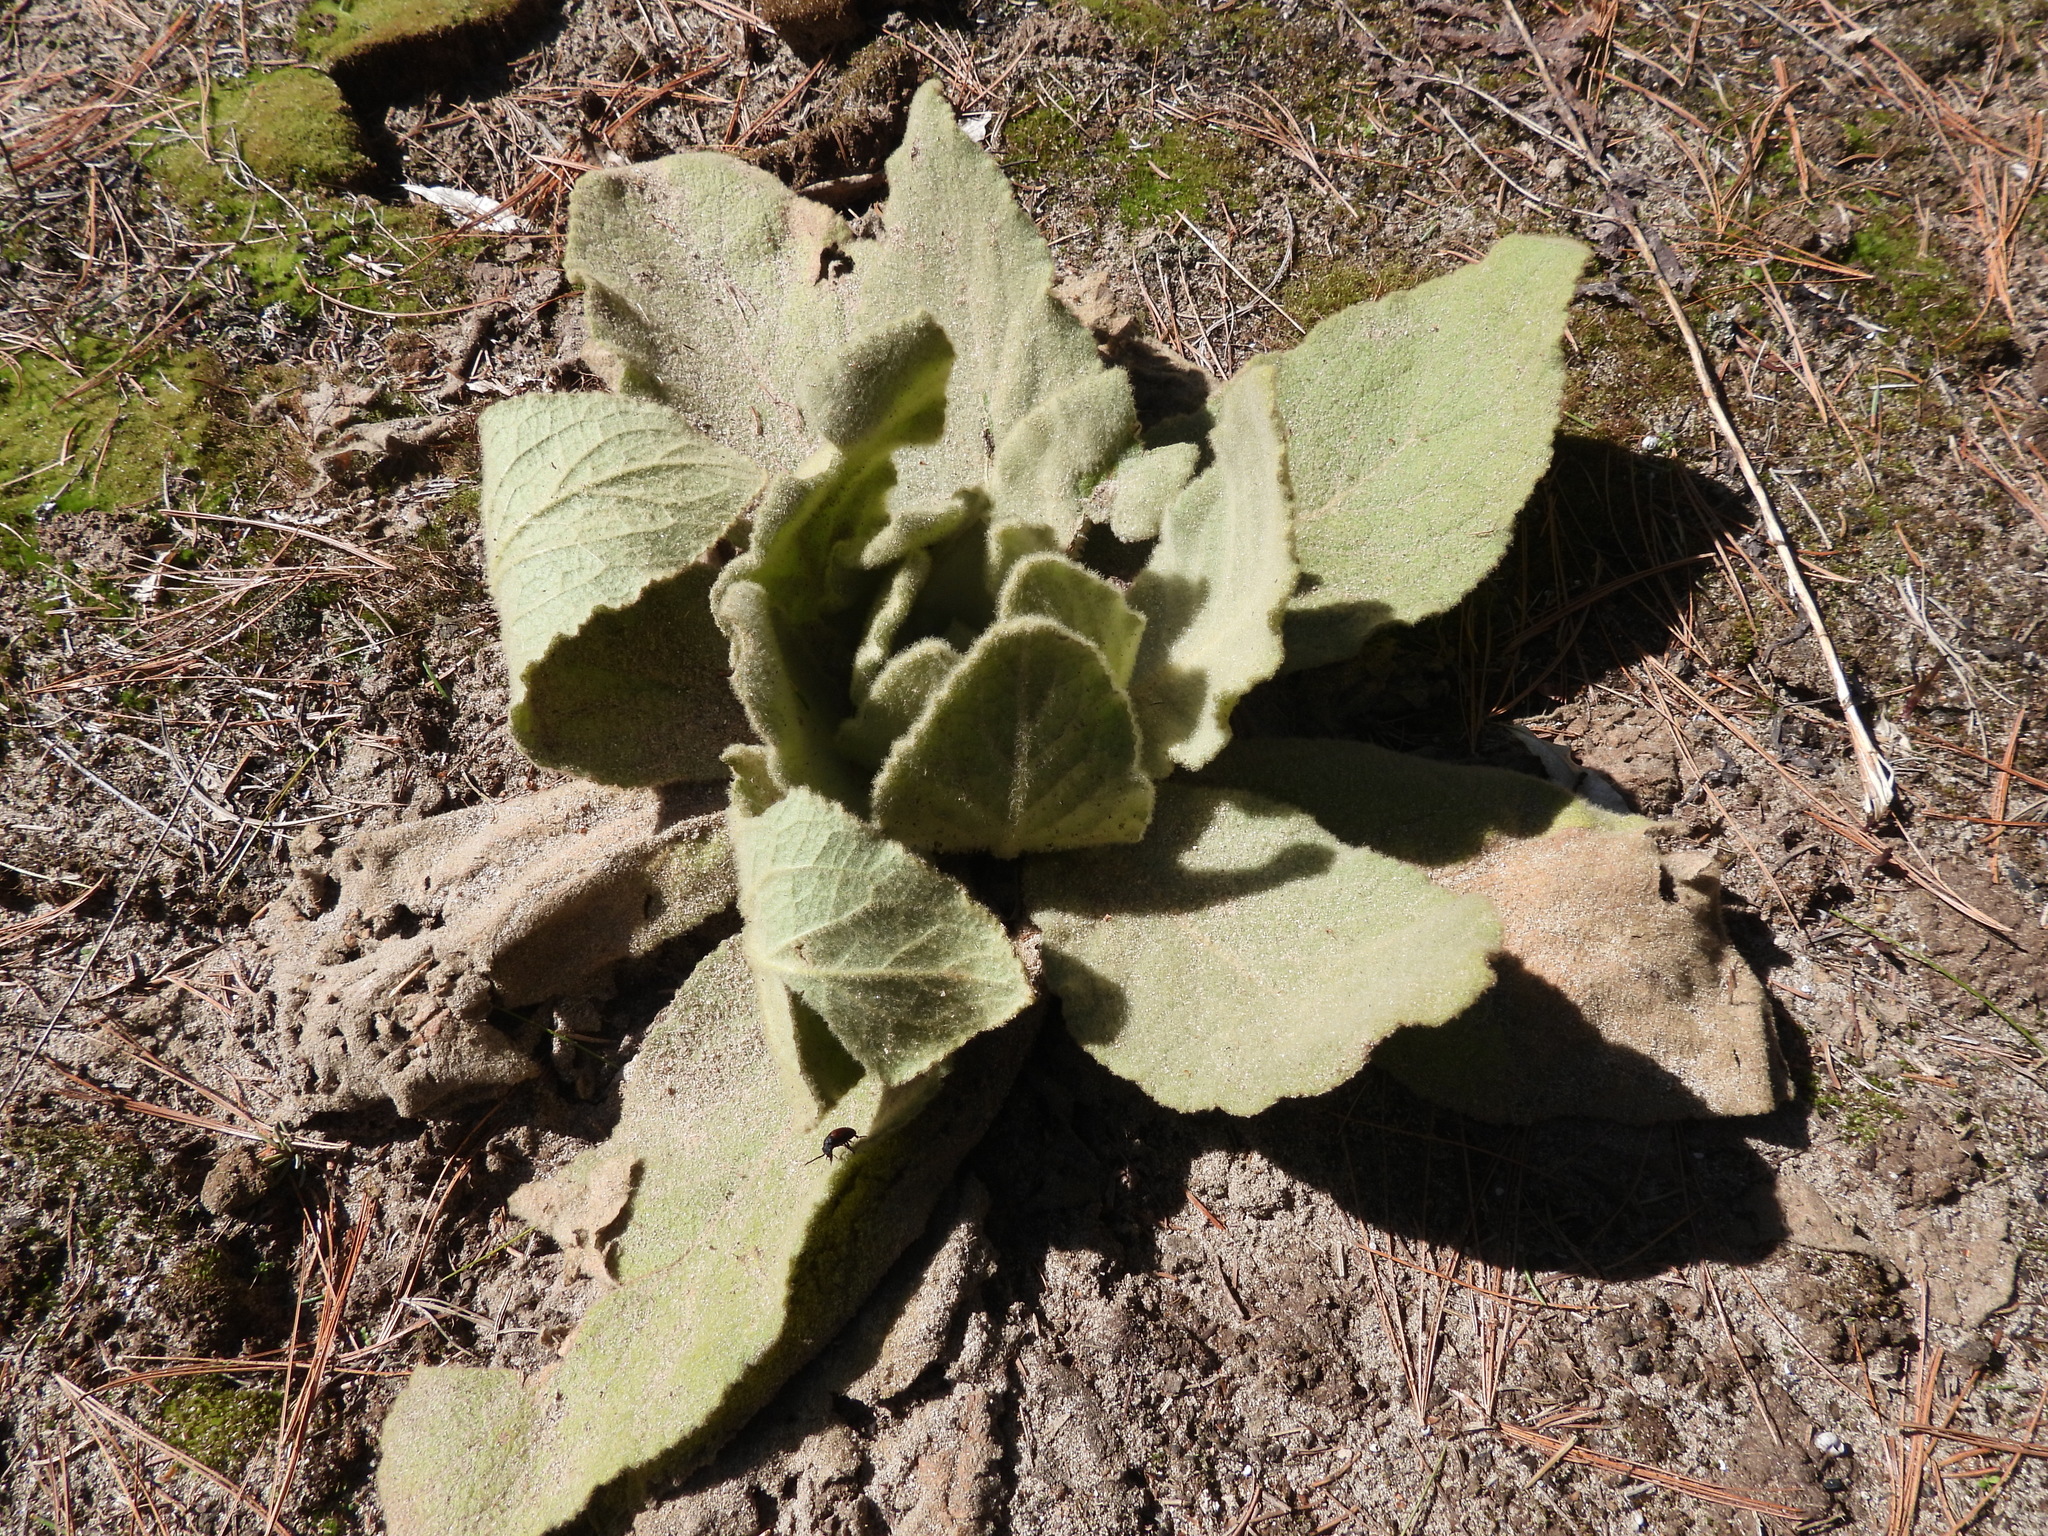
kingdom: Plantae
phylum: Tracheophyta
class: Magnoliopsida
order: Lamiales
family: Scrophulariaceae
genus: Verbascum
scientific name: Verbascum thapsus
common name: Common mullein
